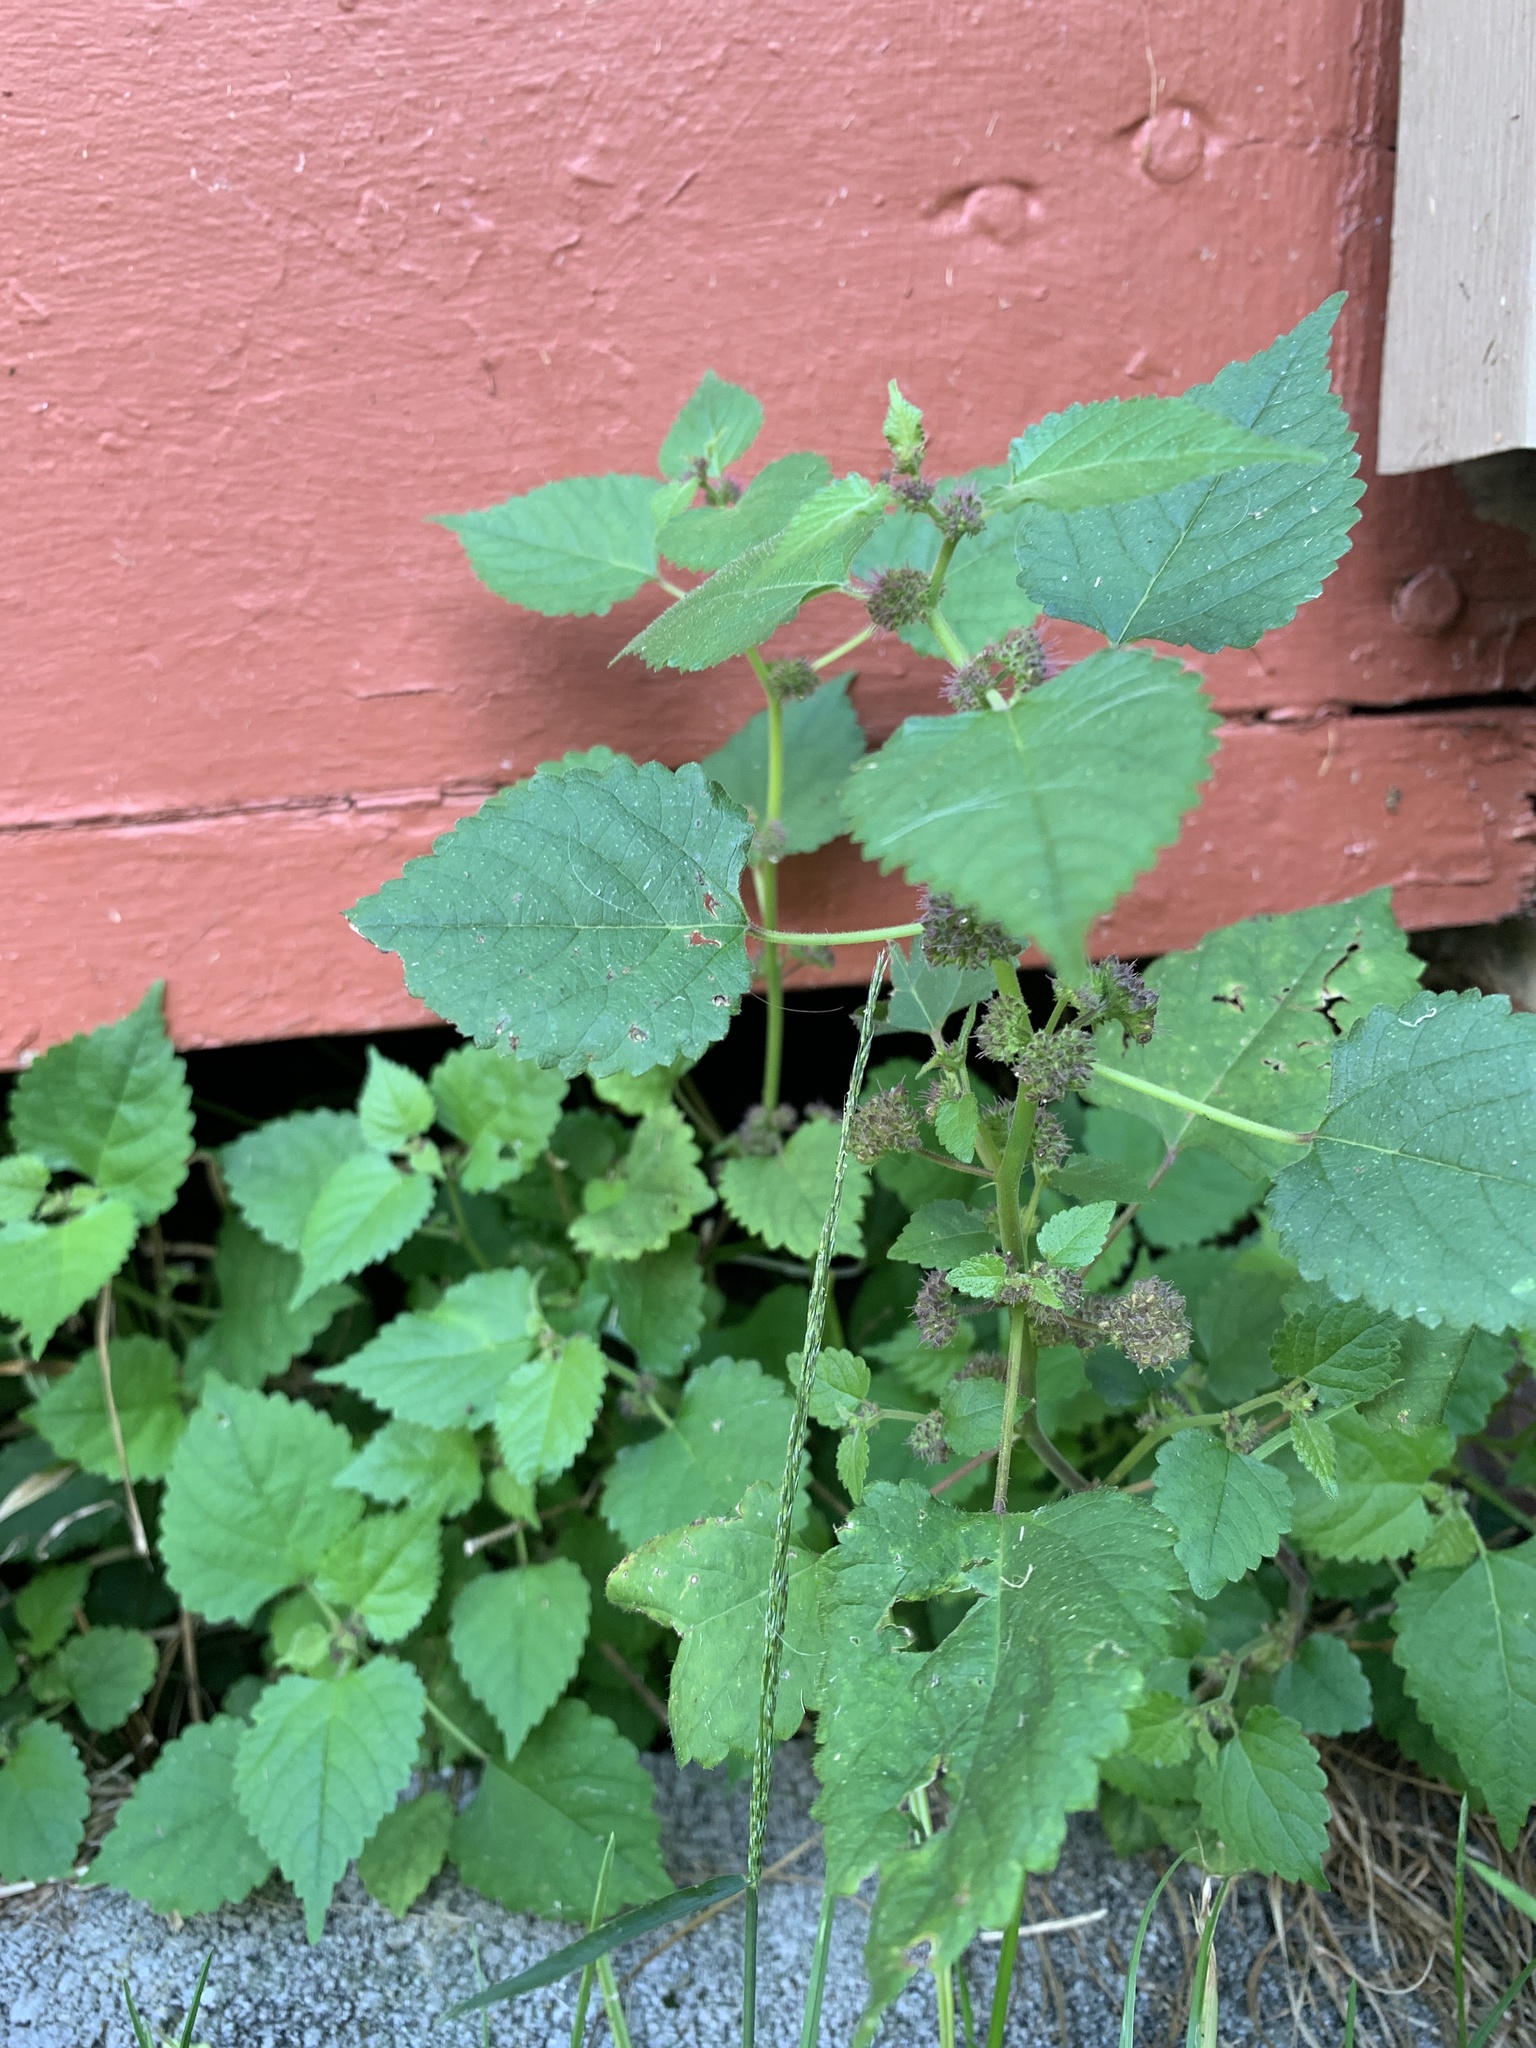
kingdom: Plantae
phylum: Tracheophyta
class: Magnoliopsida
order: Rosales
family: Moraceae
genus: Fatoua
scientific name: Fatoua villosa
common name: Hairy crabweed
